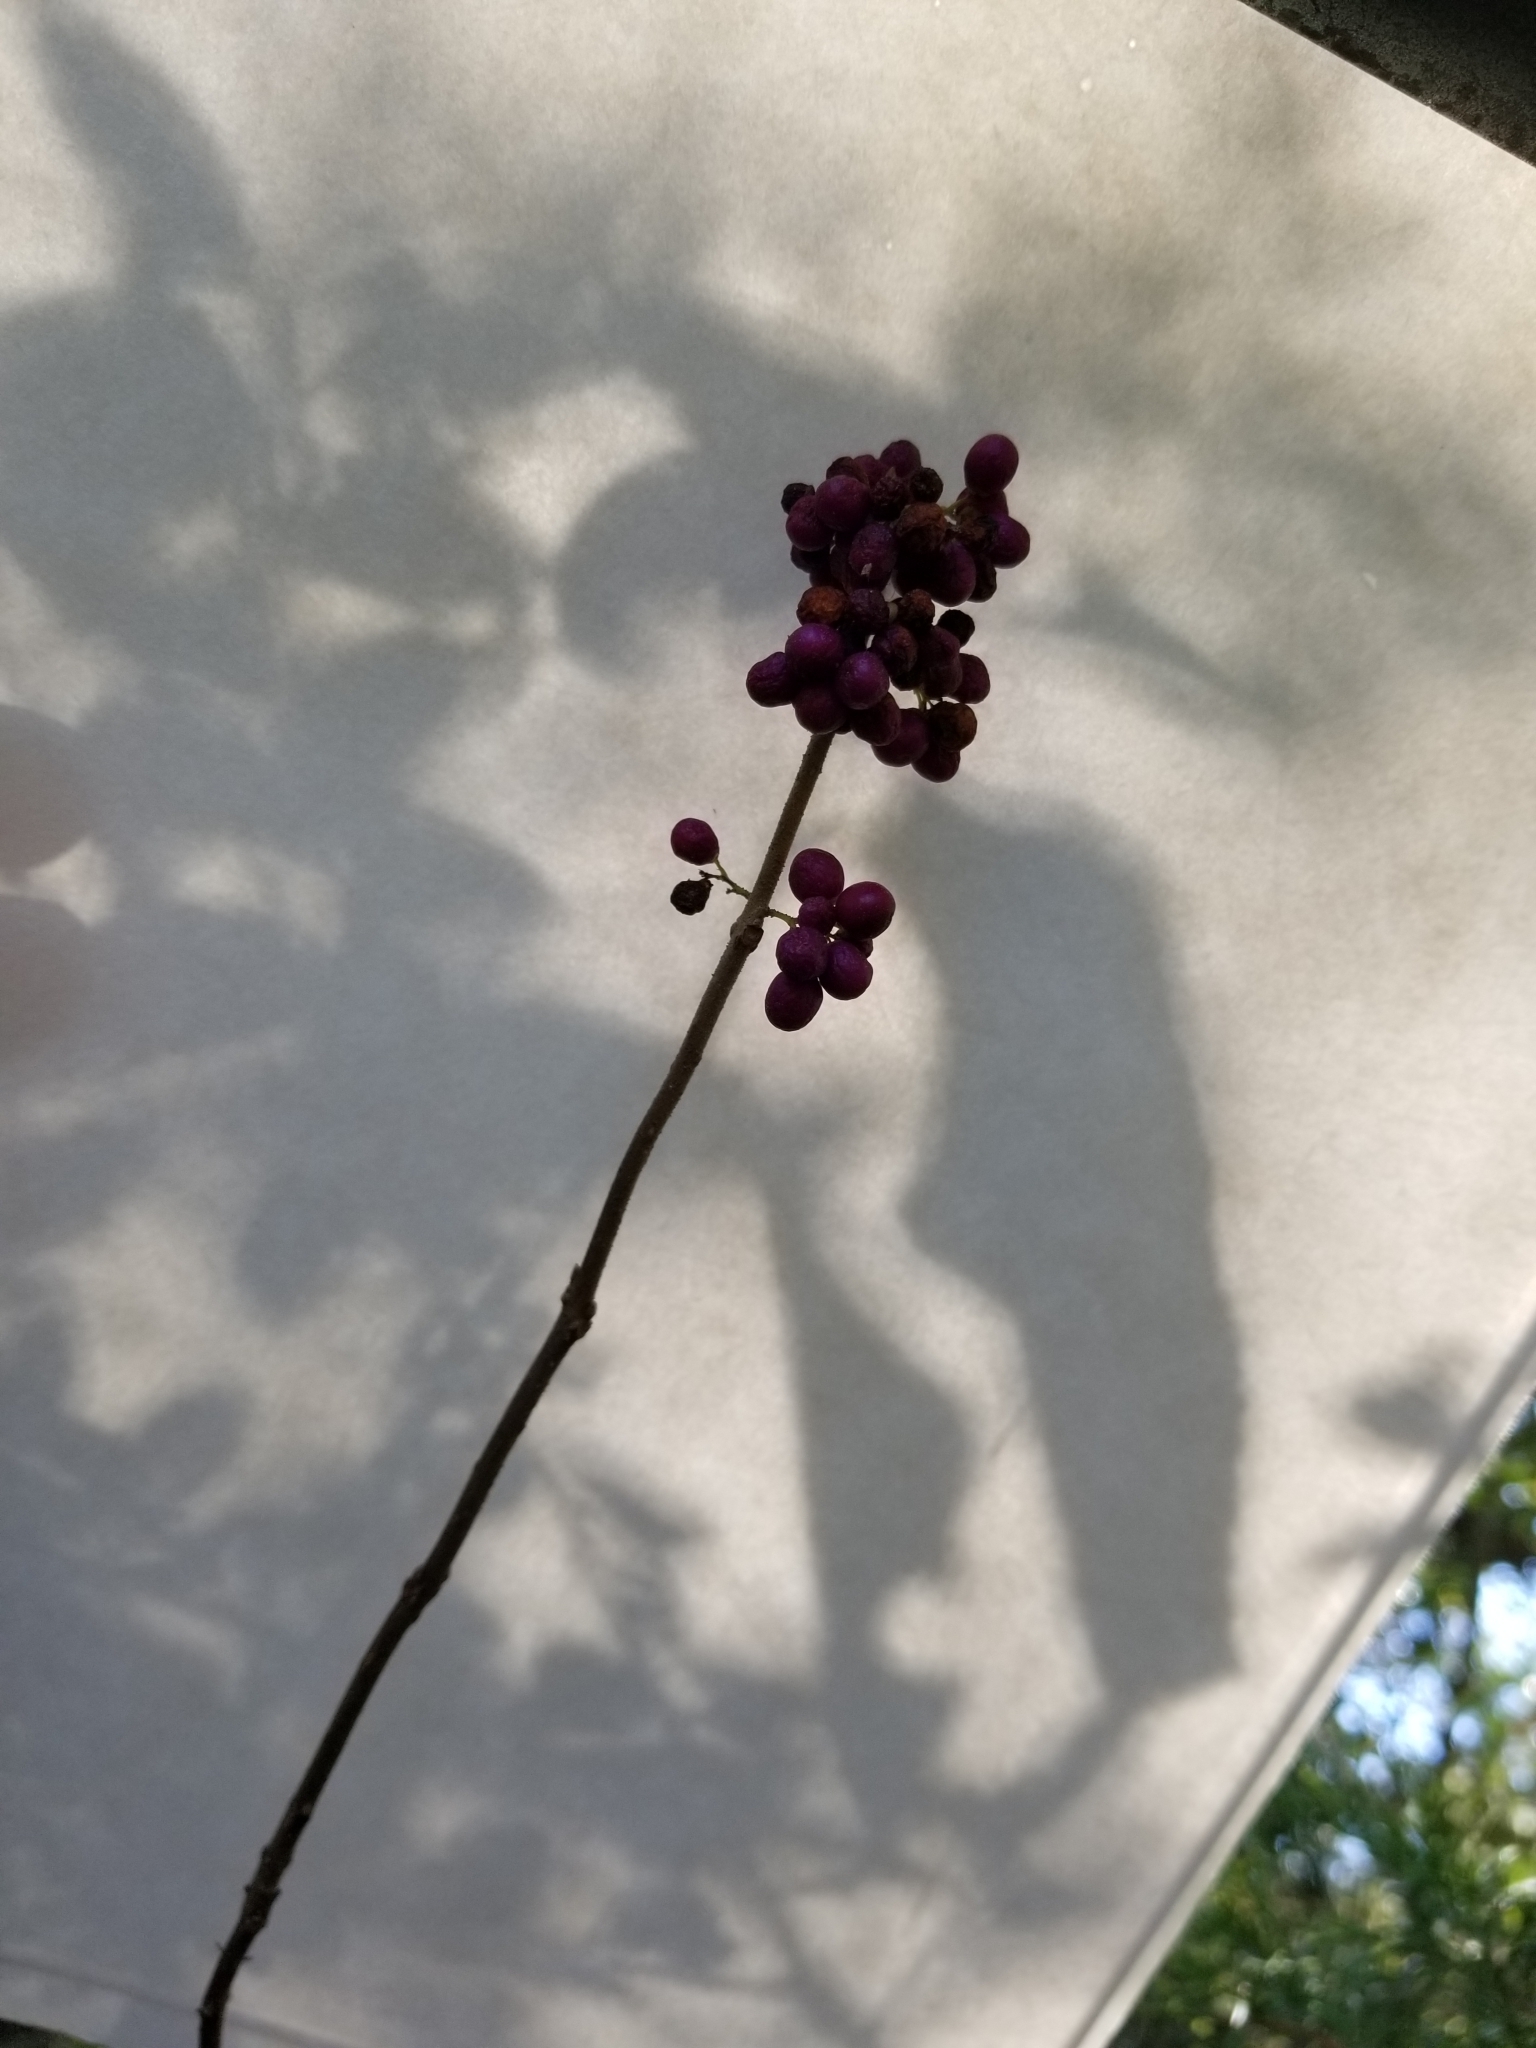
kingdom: Plantae
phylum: Tracheophyta
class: Magnoliopsida
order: Lamiales
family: Lamiaceae
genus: Callicarpa
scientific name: Callicarpa americana
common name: American beautyberry
